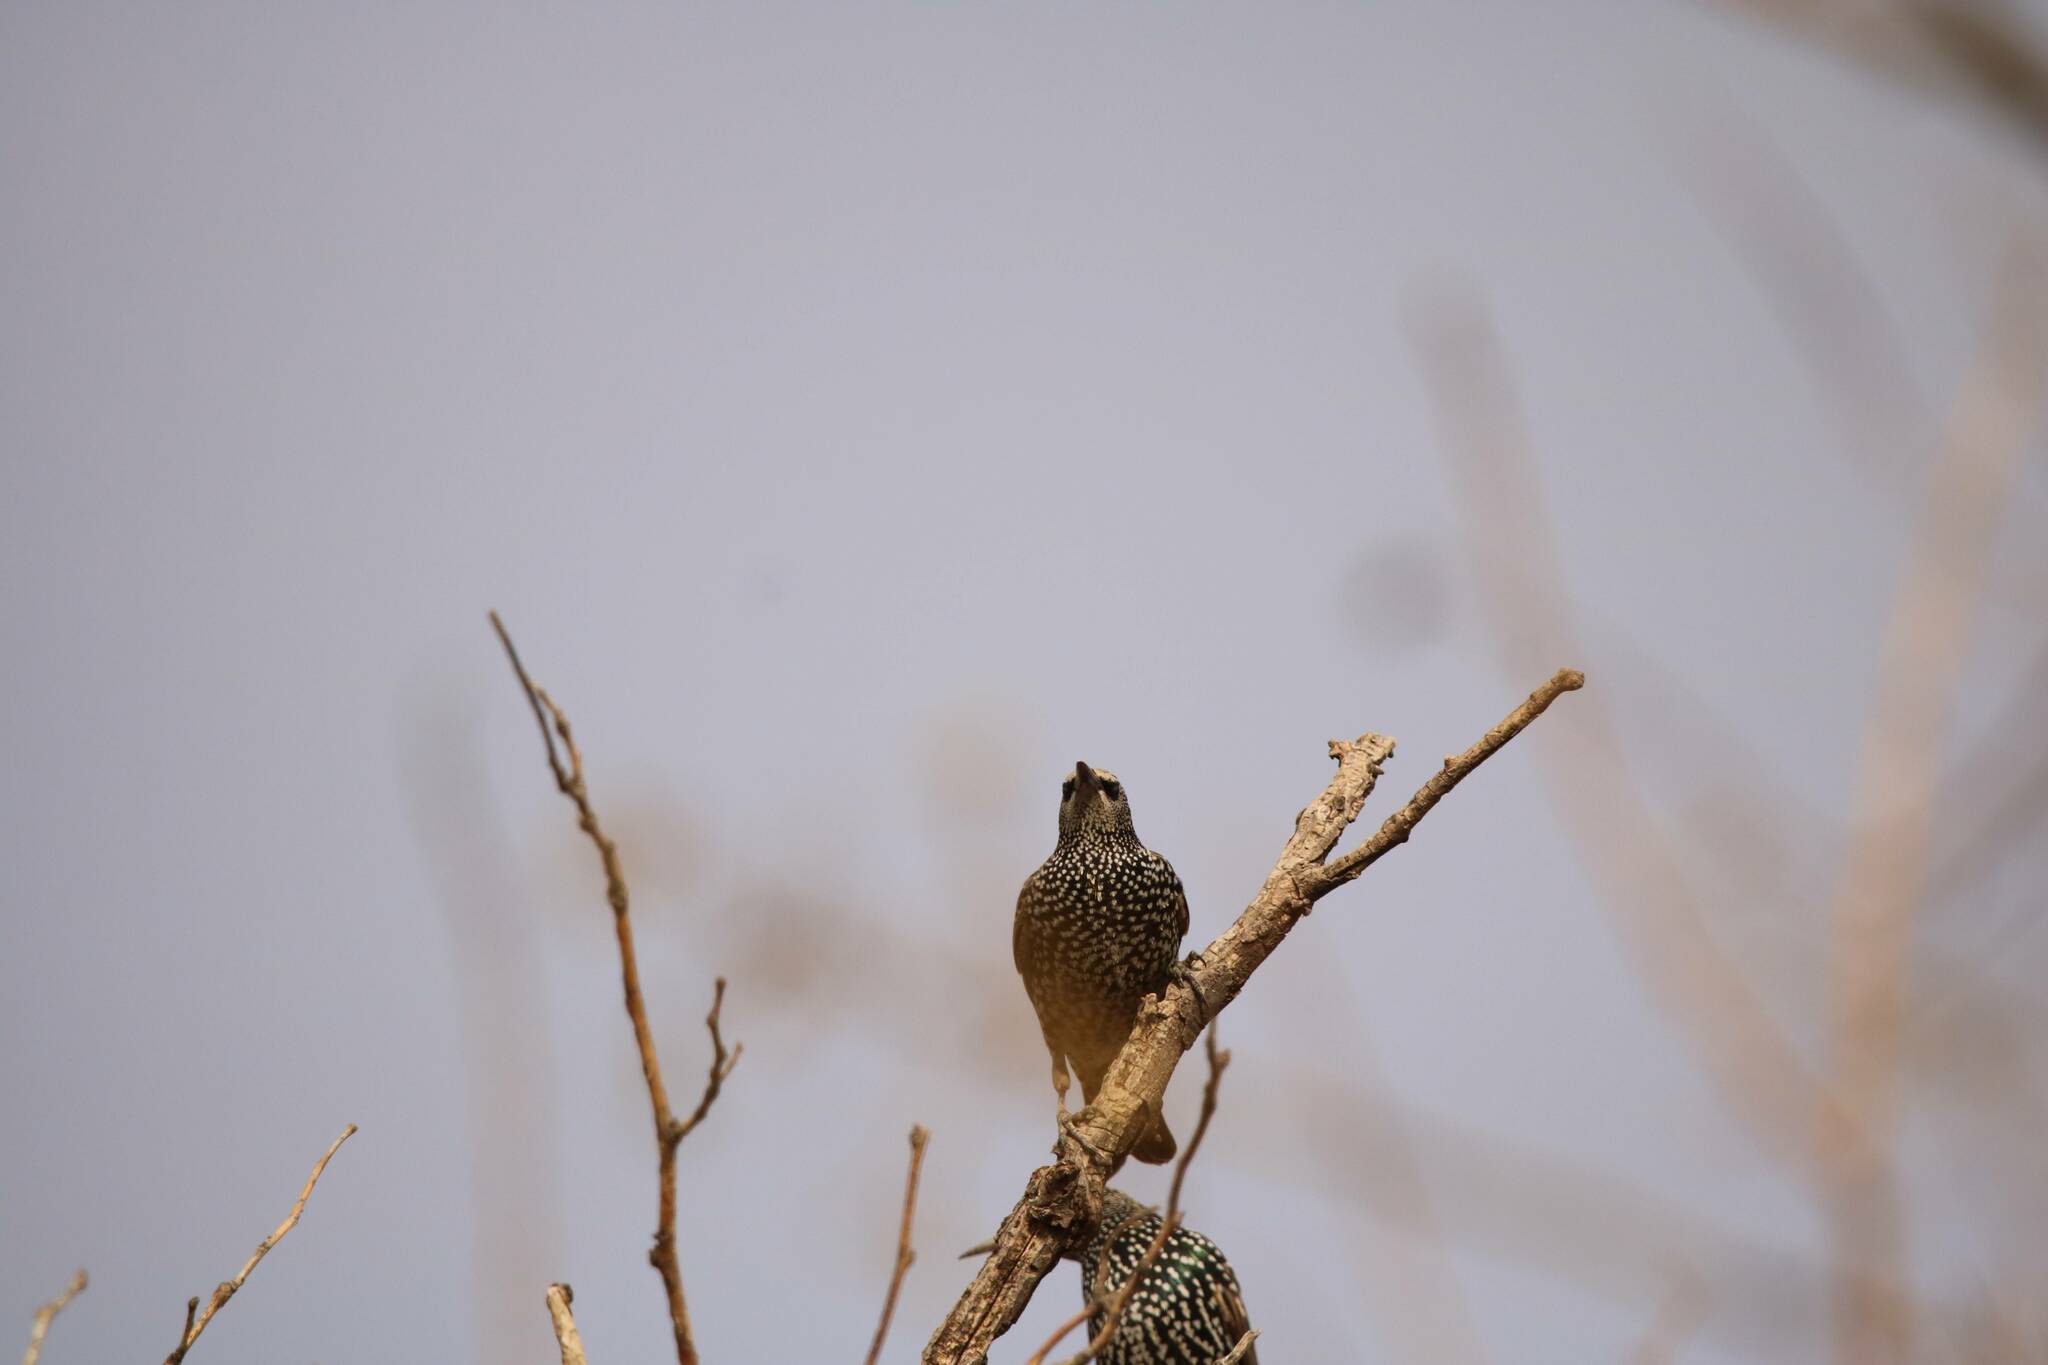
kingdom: Animalia
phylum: Chordata
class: Aves
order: Passeriformes
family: Sturnidae
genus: Sturnus
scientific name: Sturnus vulgaris
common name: Common starling
